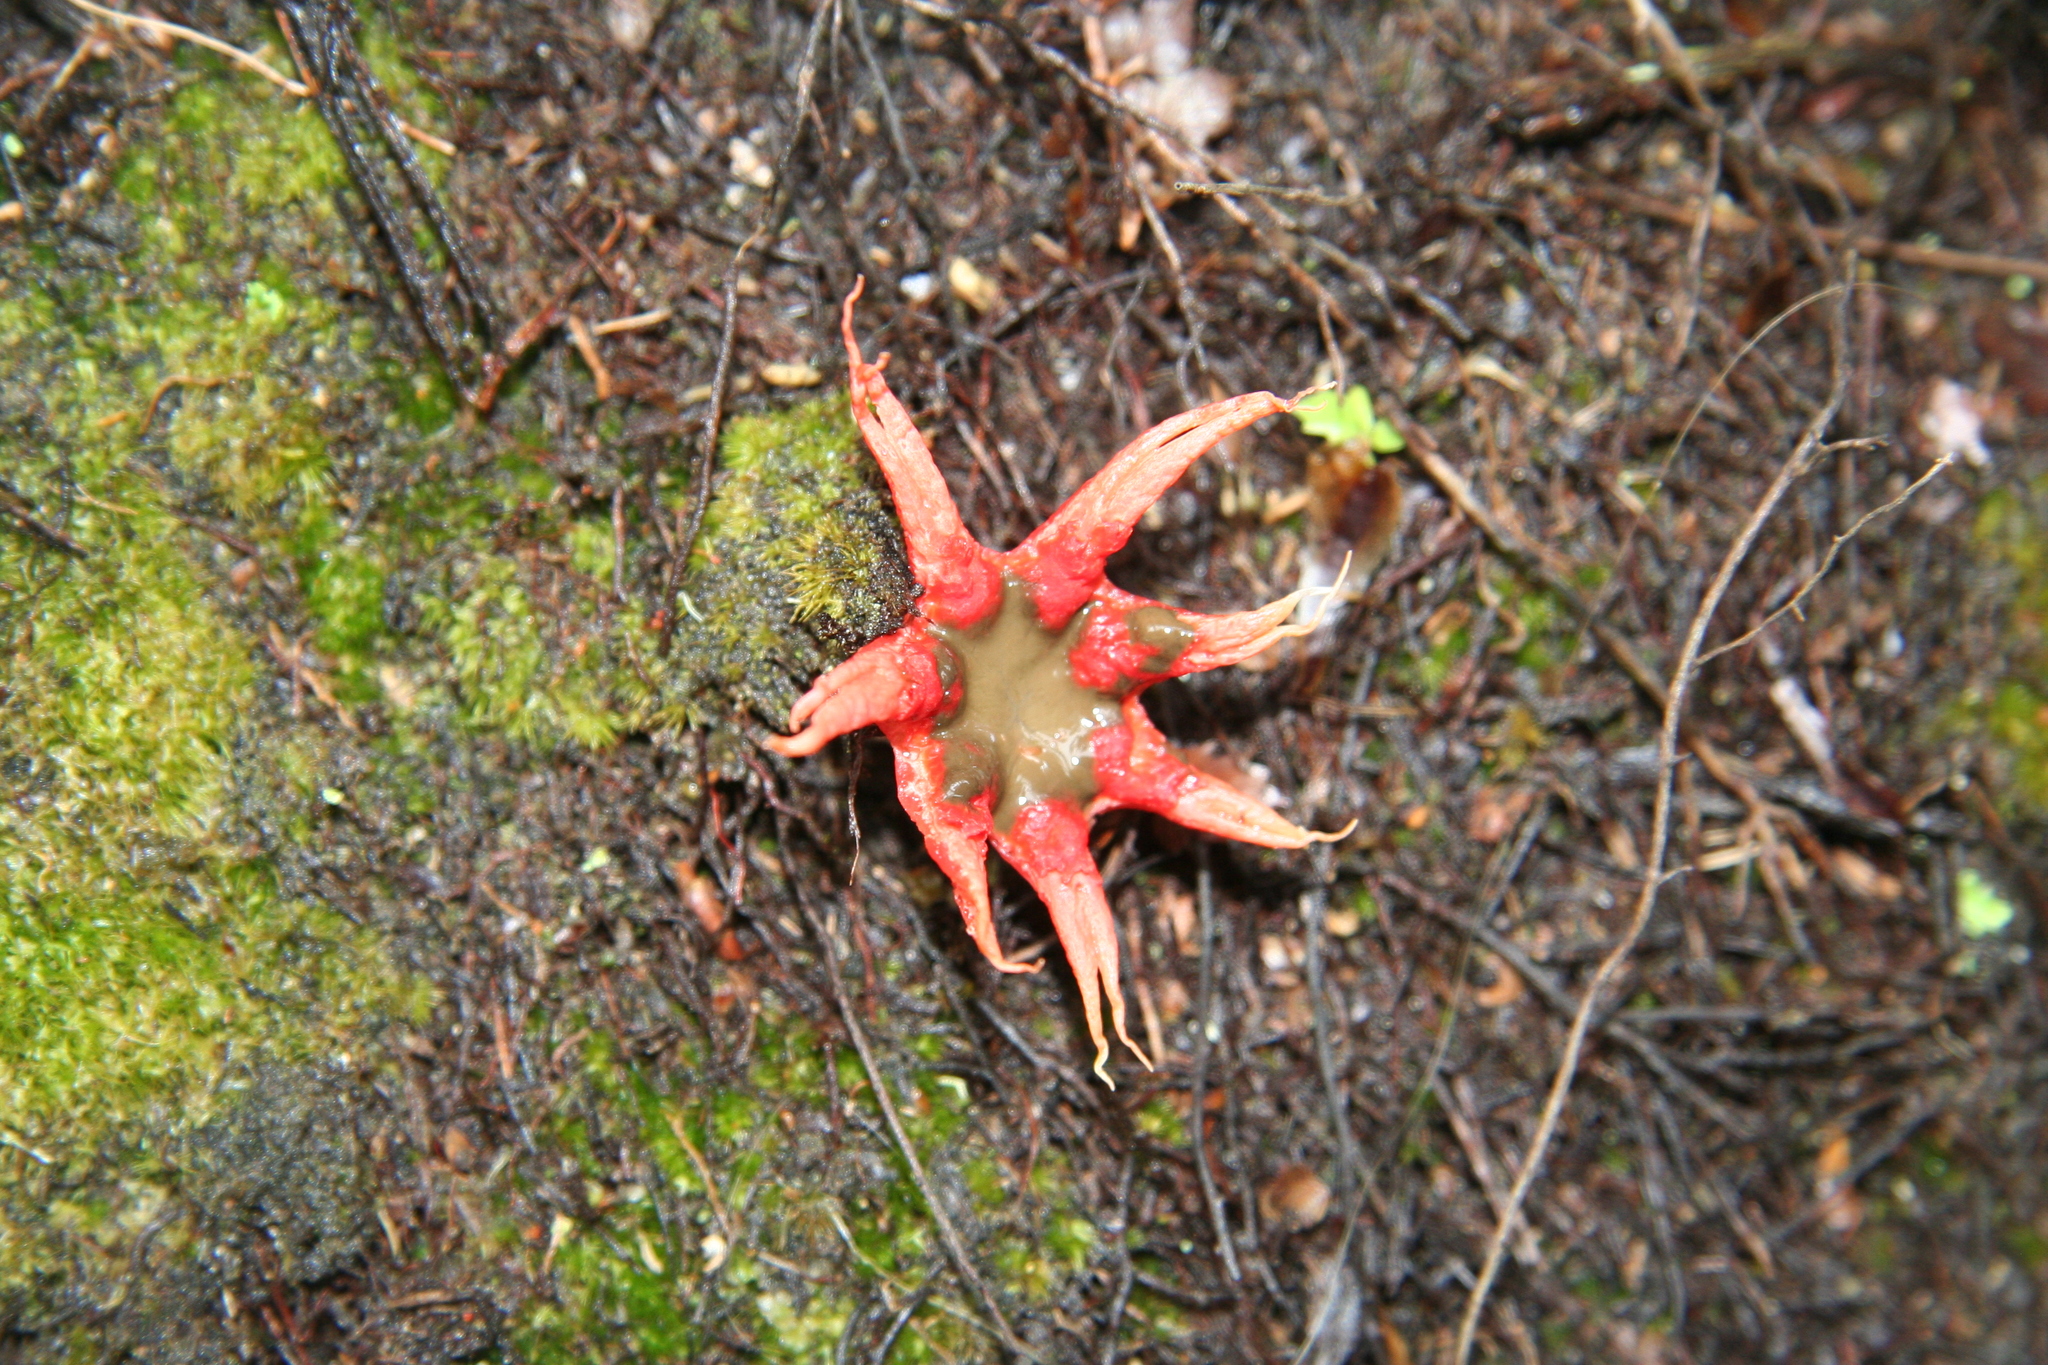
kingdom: Fungi
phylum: Basidiomycota
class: Agaricomycetes
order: Phallales
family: Phallaceae
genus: Aseroe
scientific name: Aseroe rubra
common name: Starfish fungus
